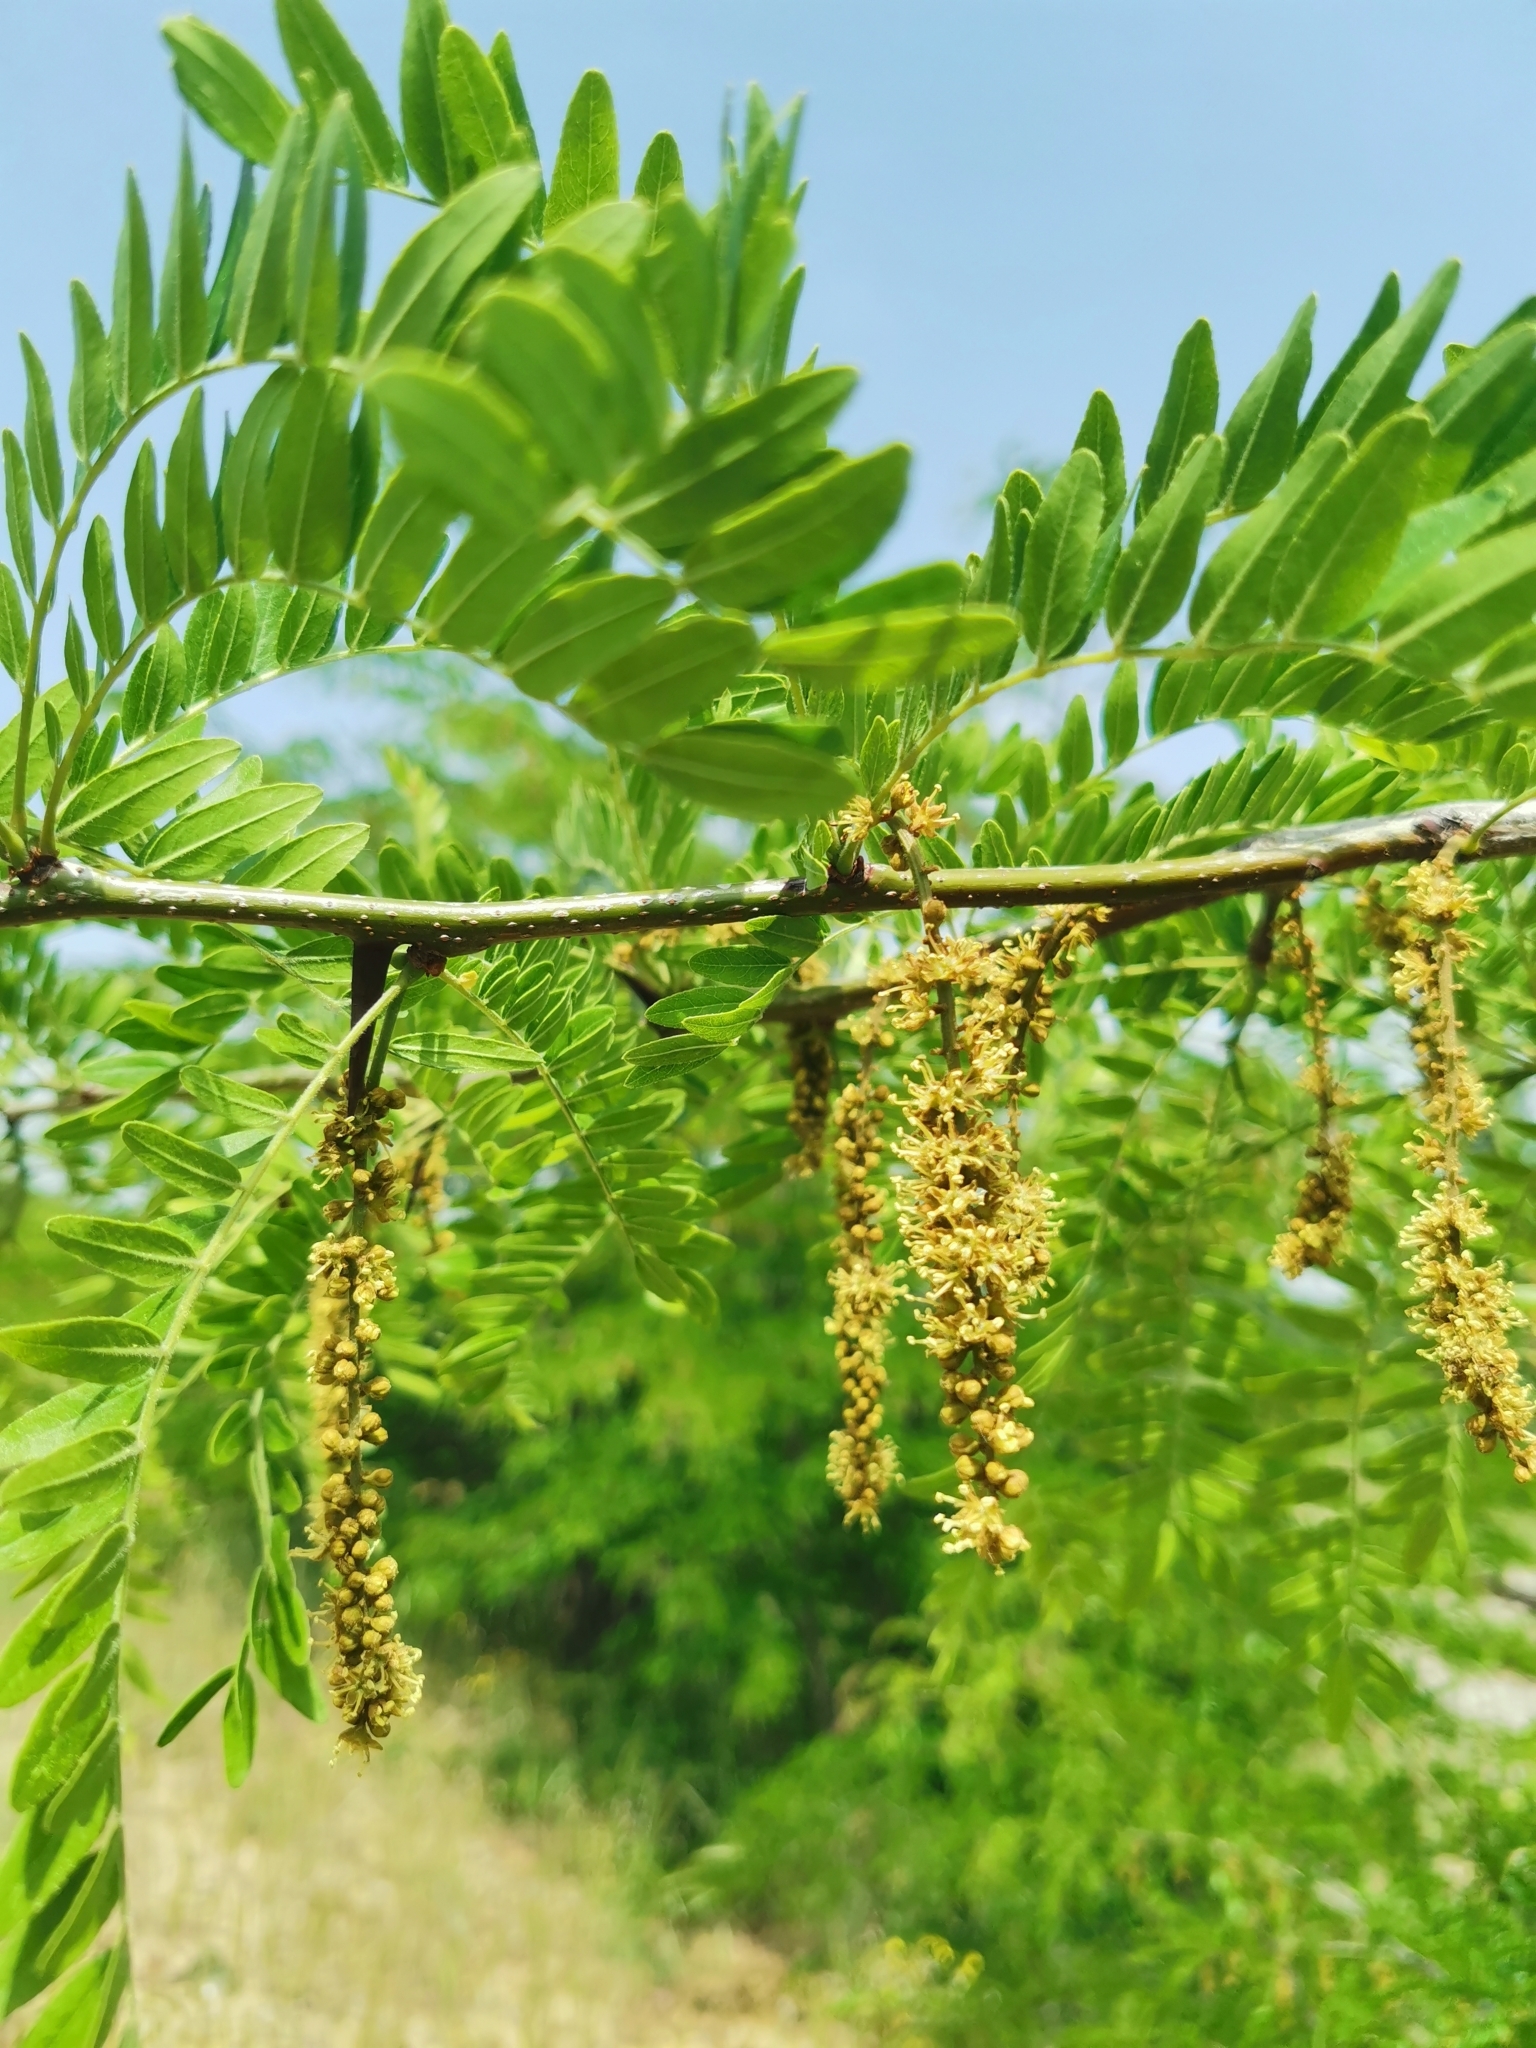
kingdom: Plantae
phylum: Tracheophyta
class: Magnoliopsida
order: Fabales
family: Fabaceae
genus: Gleditsia
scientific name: Gleditsia triacanthos
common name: Common honeylocust
